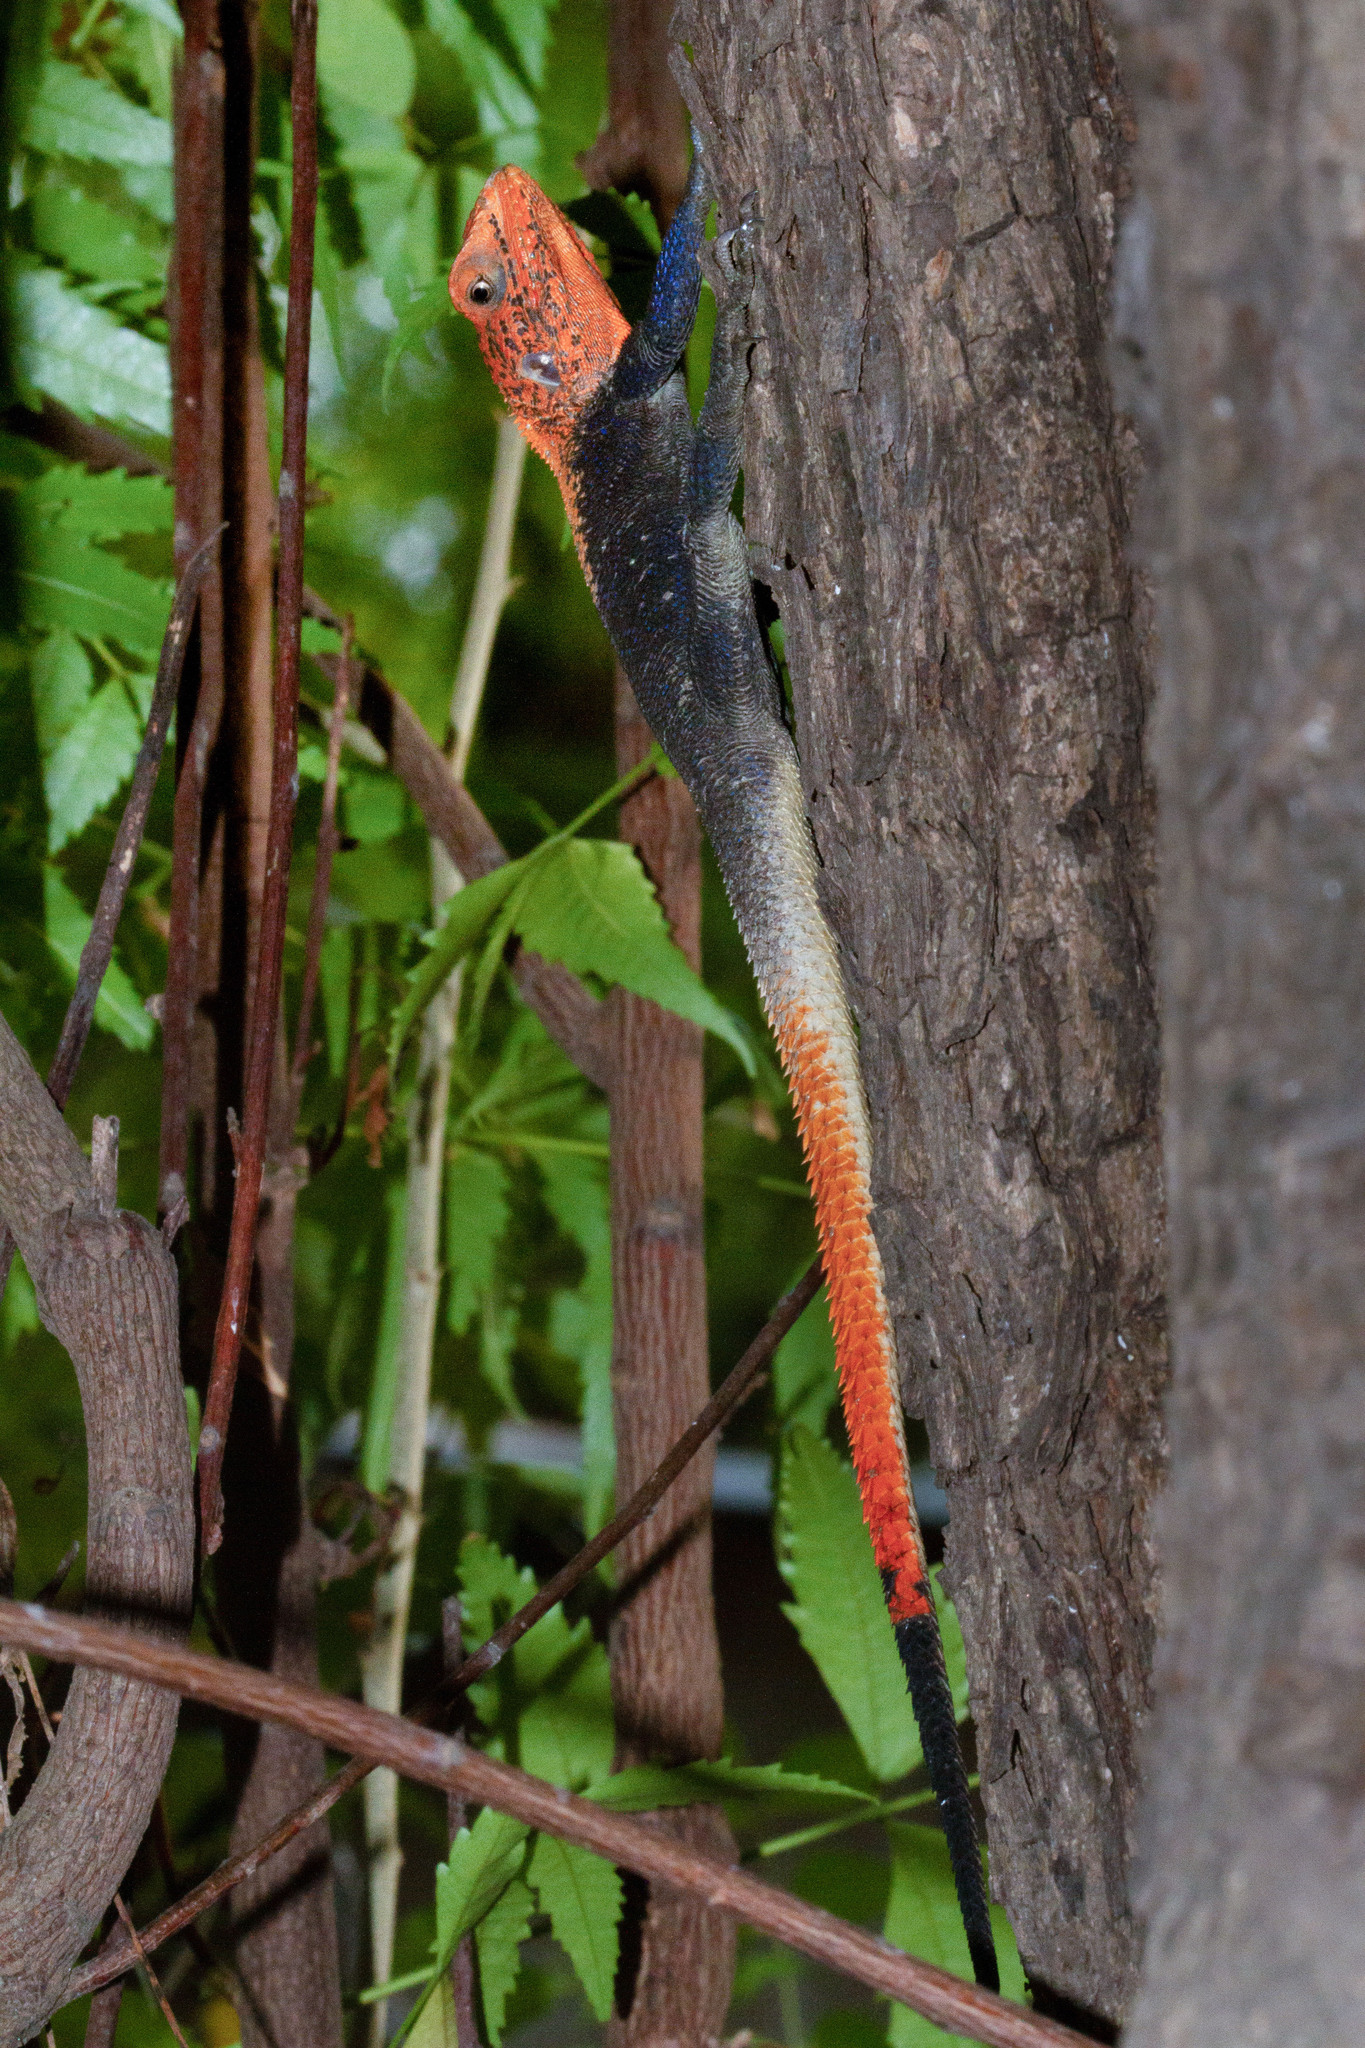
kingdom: Animalia
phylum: Chordata
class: Squamata
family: Agamidae
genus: Agama
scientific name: Agama finchi
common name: Finch’s agama
